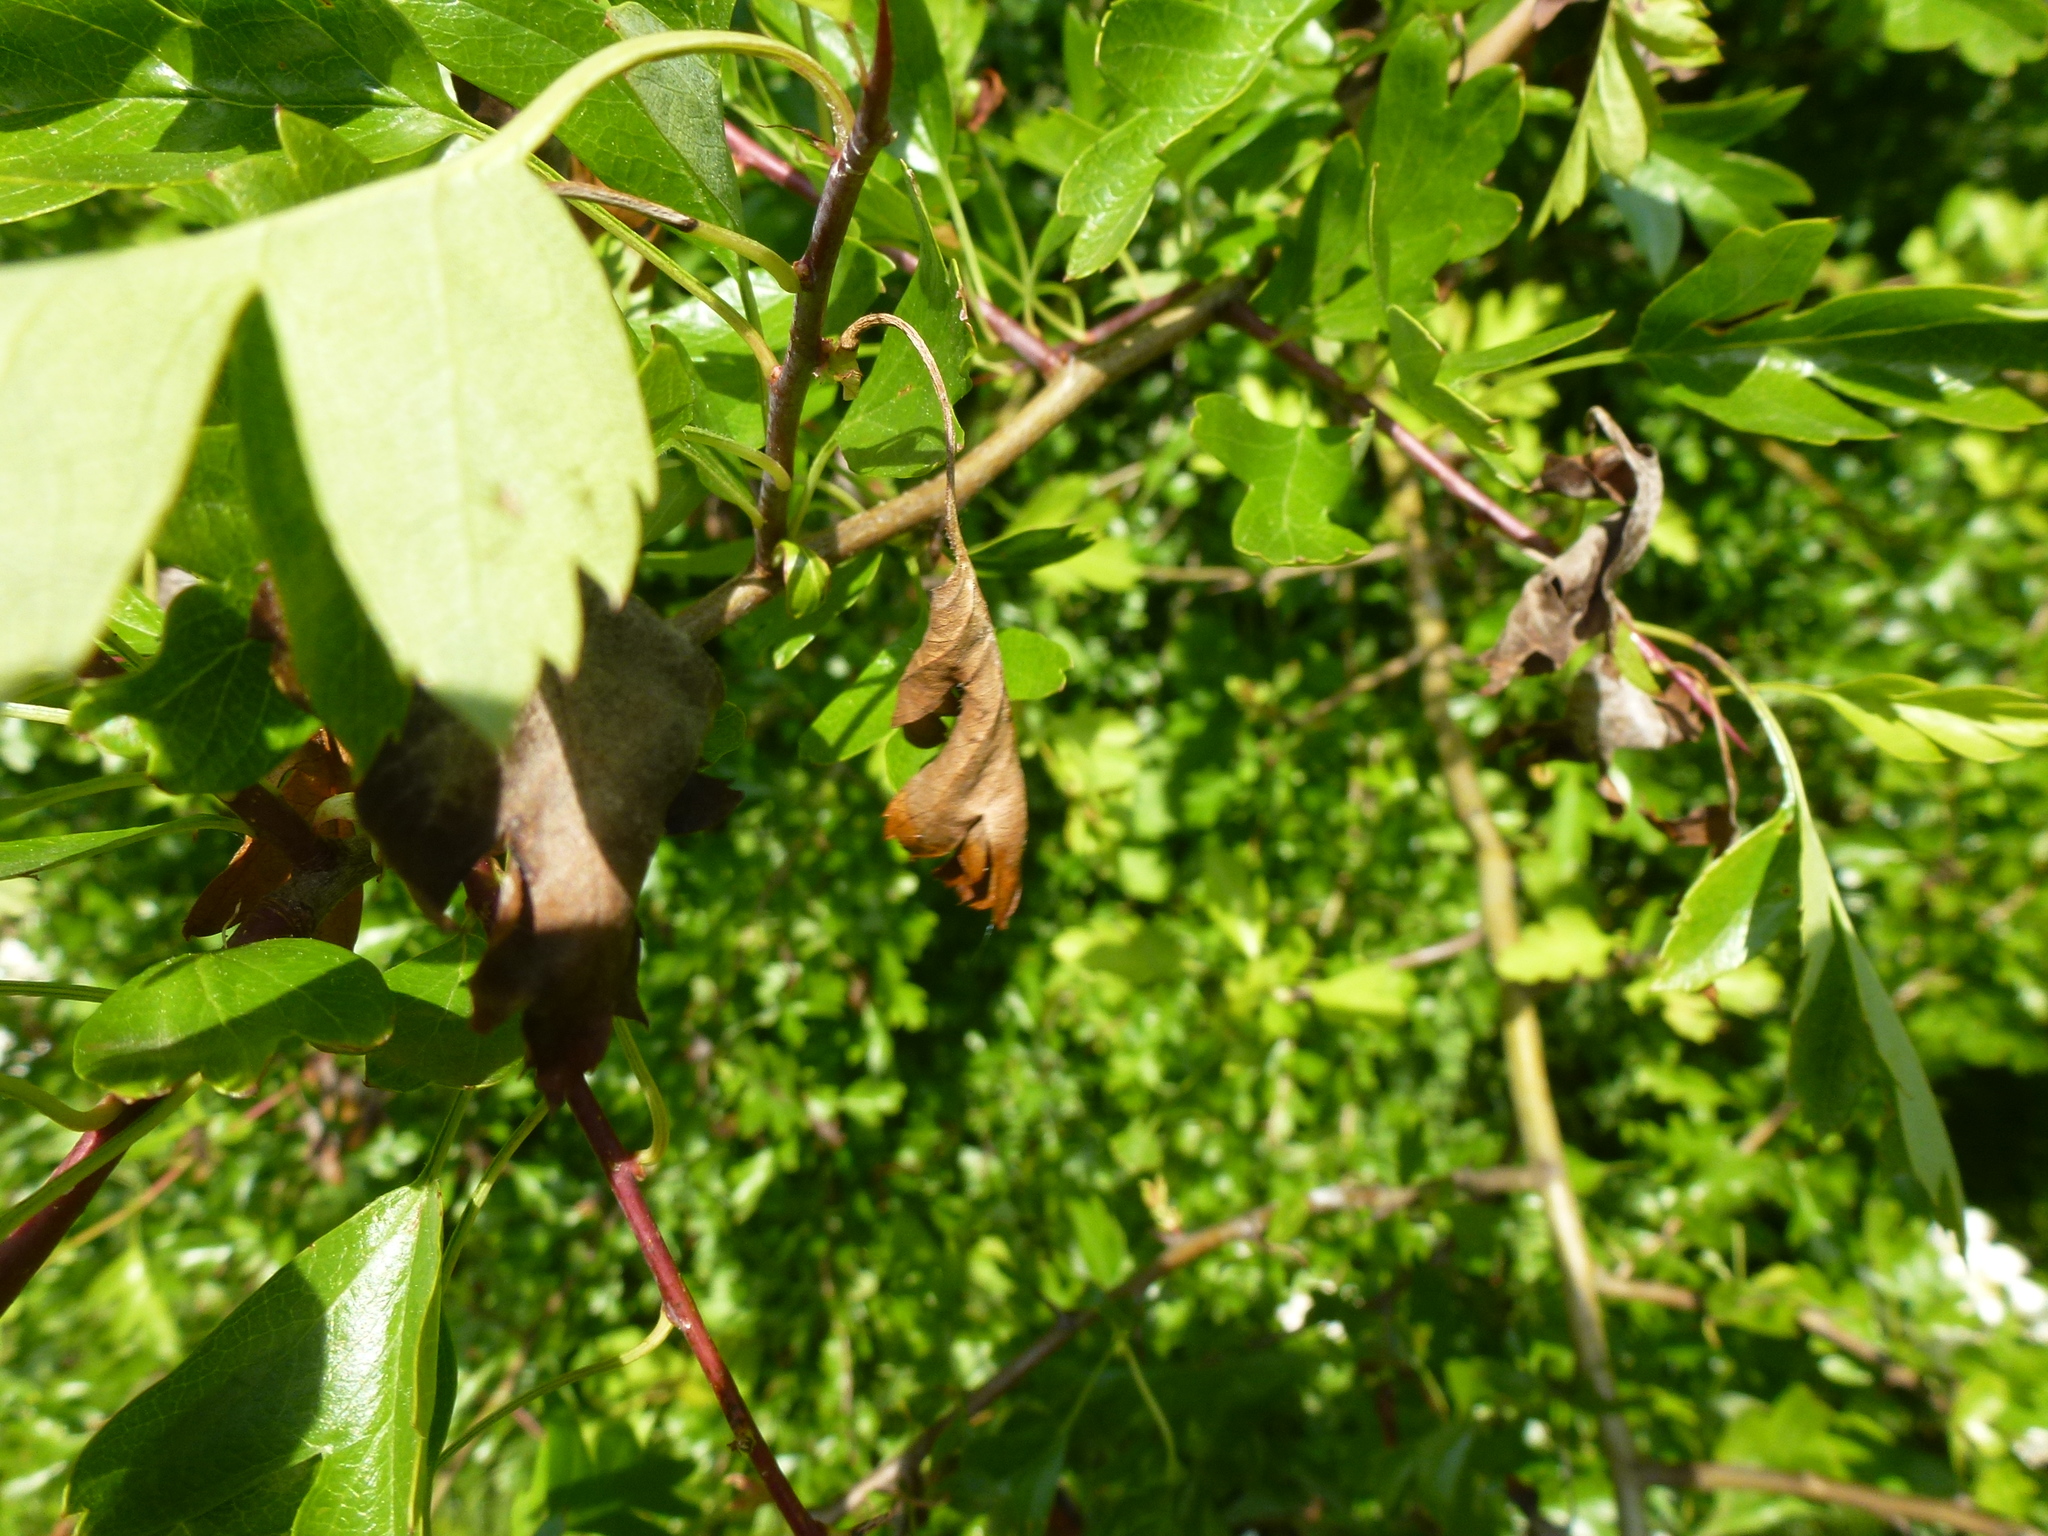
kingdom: Fungi
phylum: Ascomycota
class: Leotiomycetes
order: Helotiales
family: Sclerotiniaceae
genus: Monilinia
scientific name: Monilinia johnsonii
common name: Haw goblet
